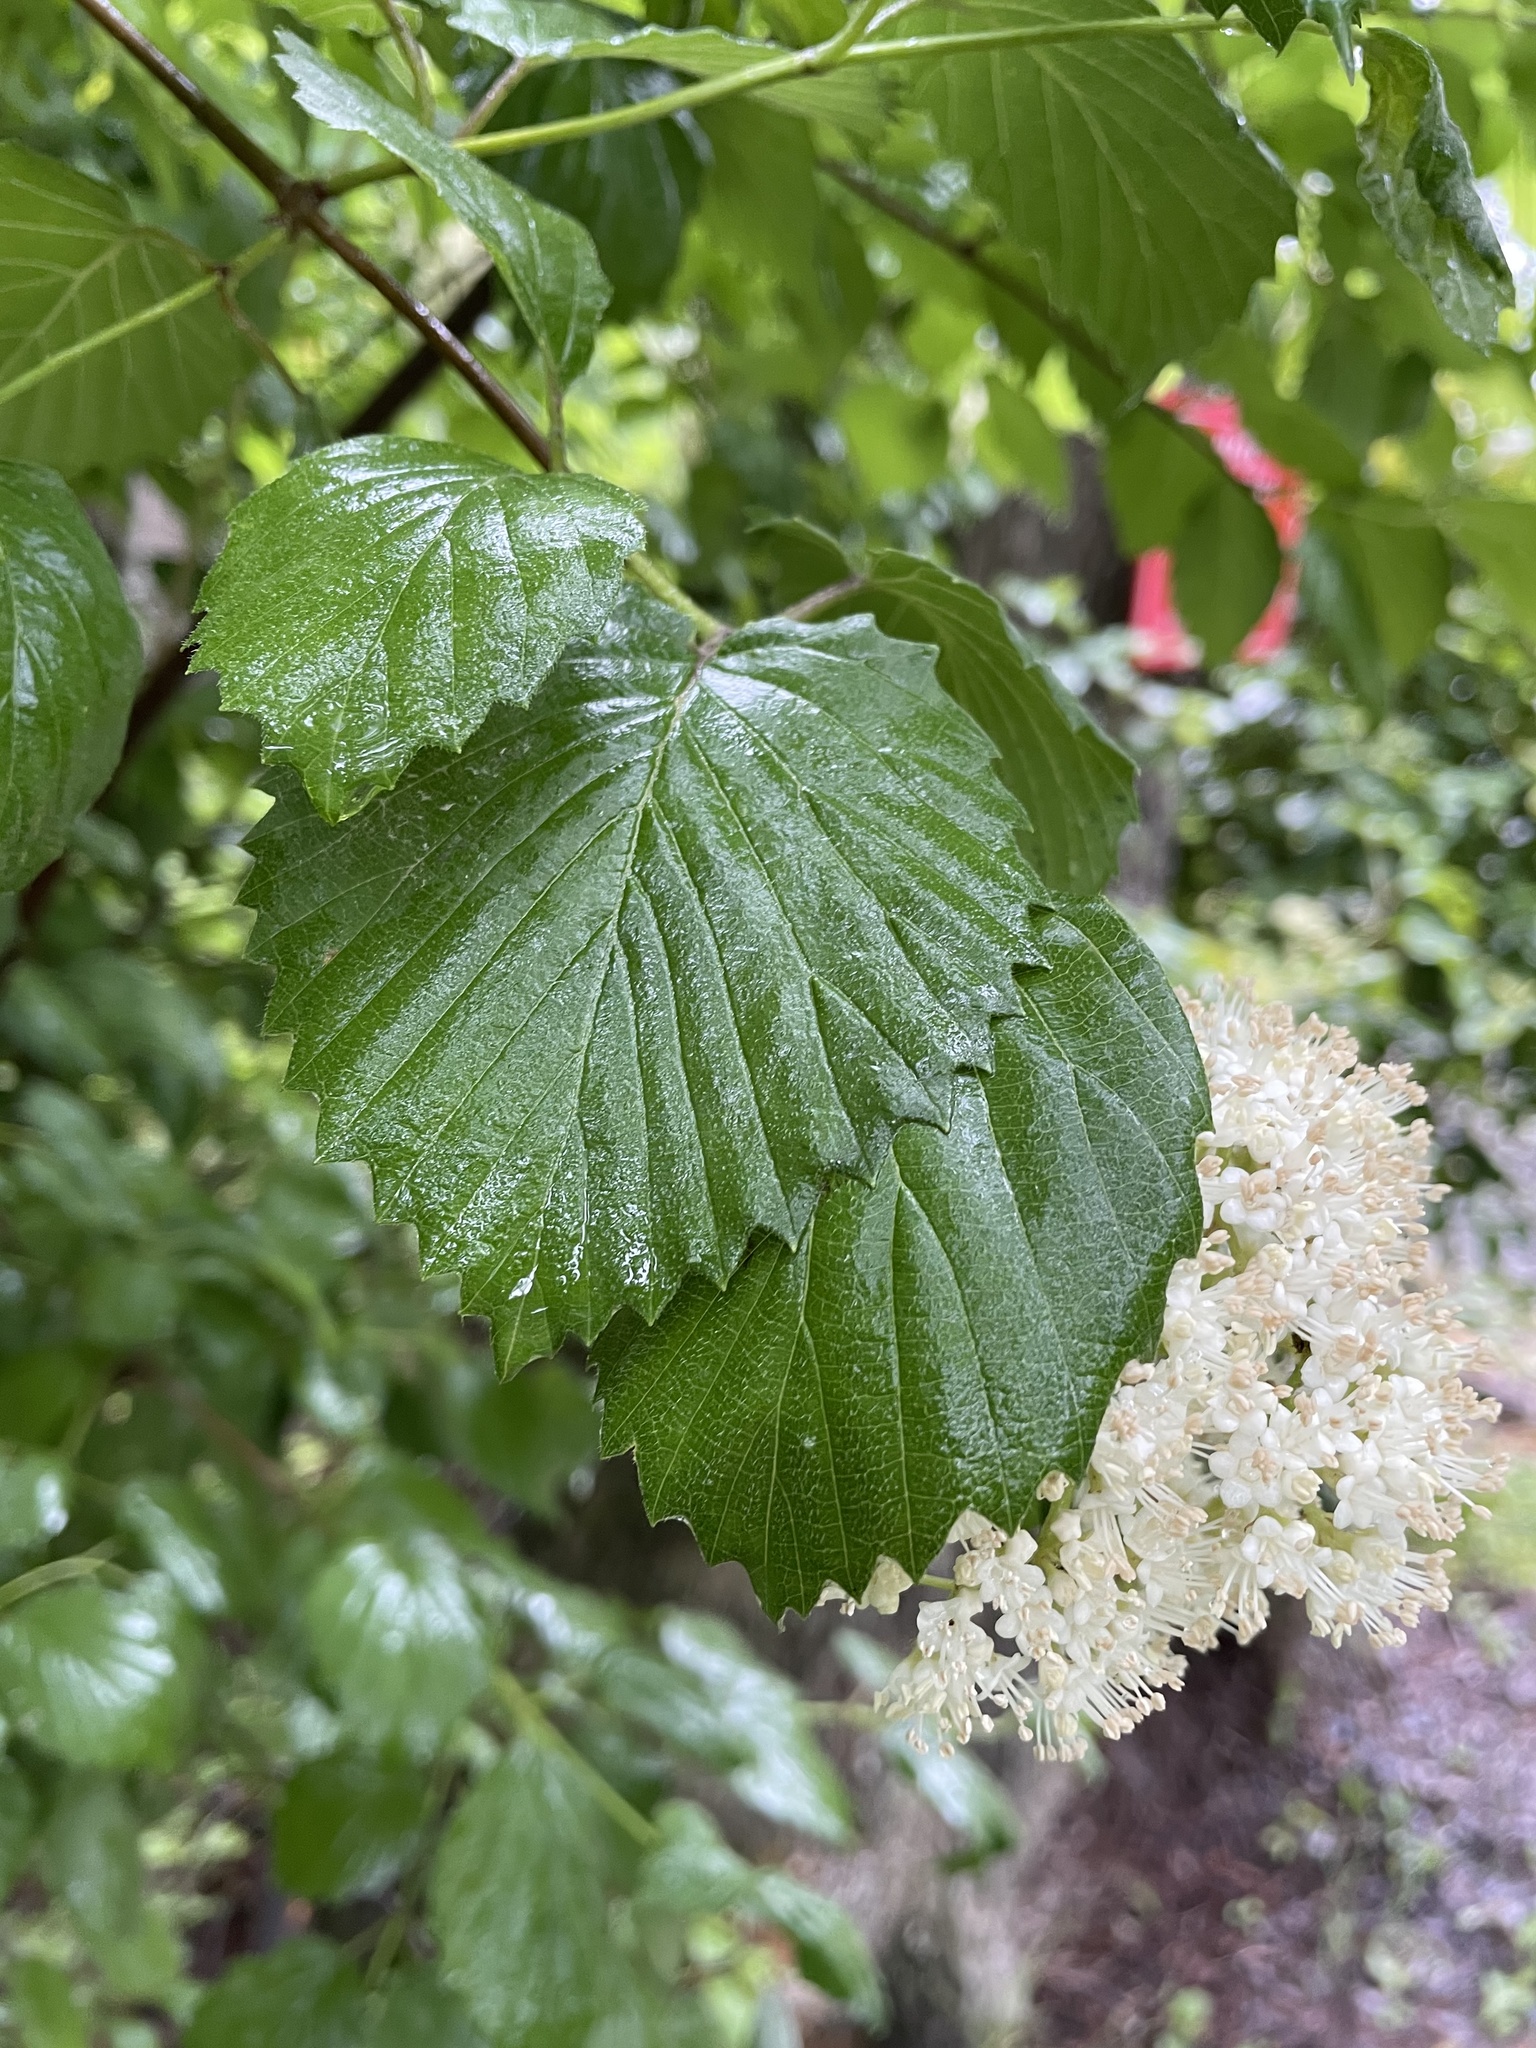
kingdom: Plantae
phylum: Tracheophyta
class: Magnoliopsida
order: Dipsacales
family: Viburnaceae
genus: Viburnum
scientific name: Viburnum dentatum
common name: Arrow-wood
